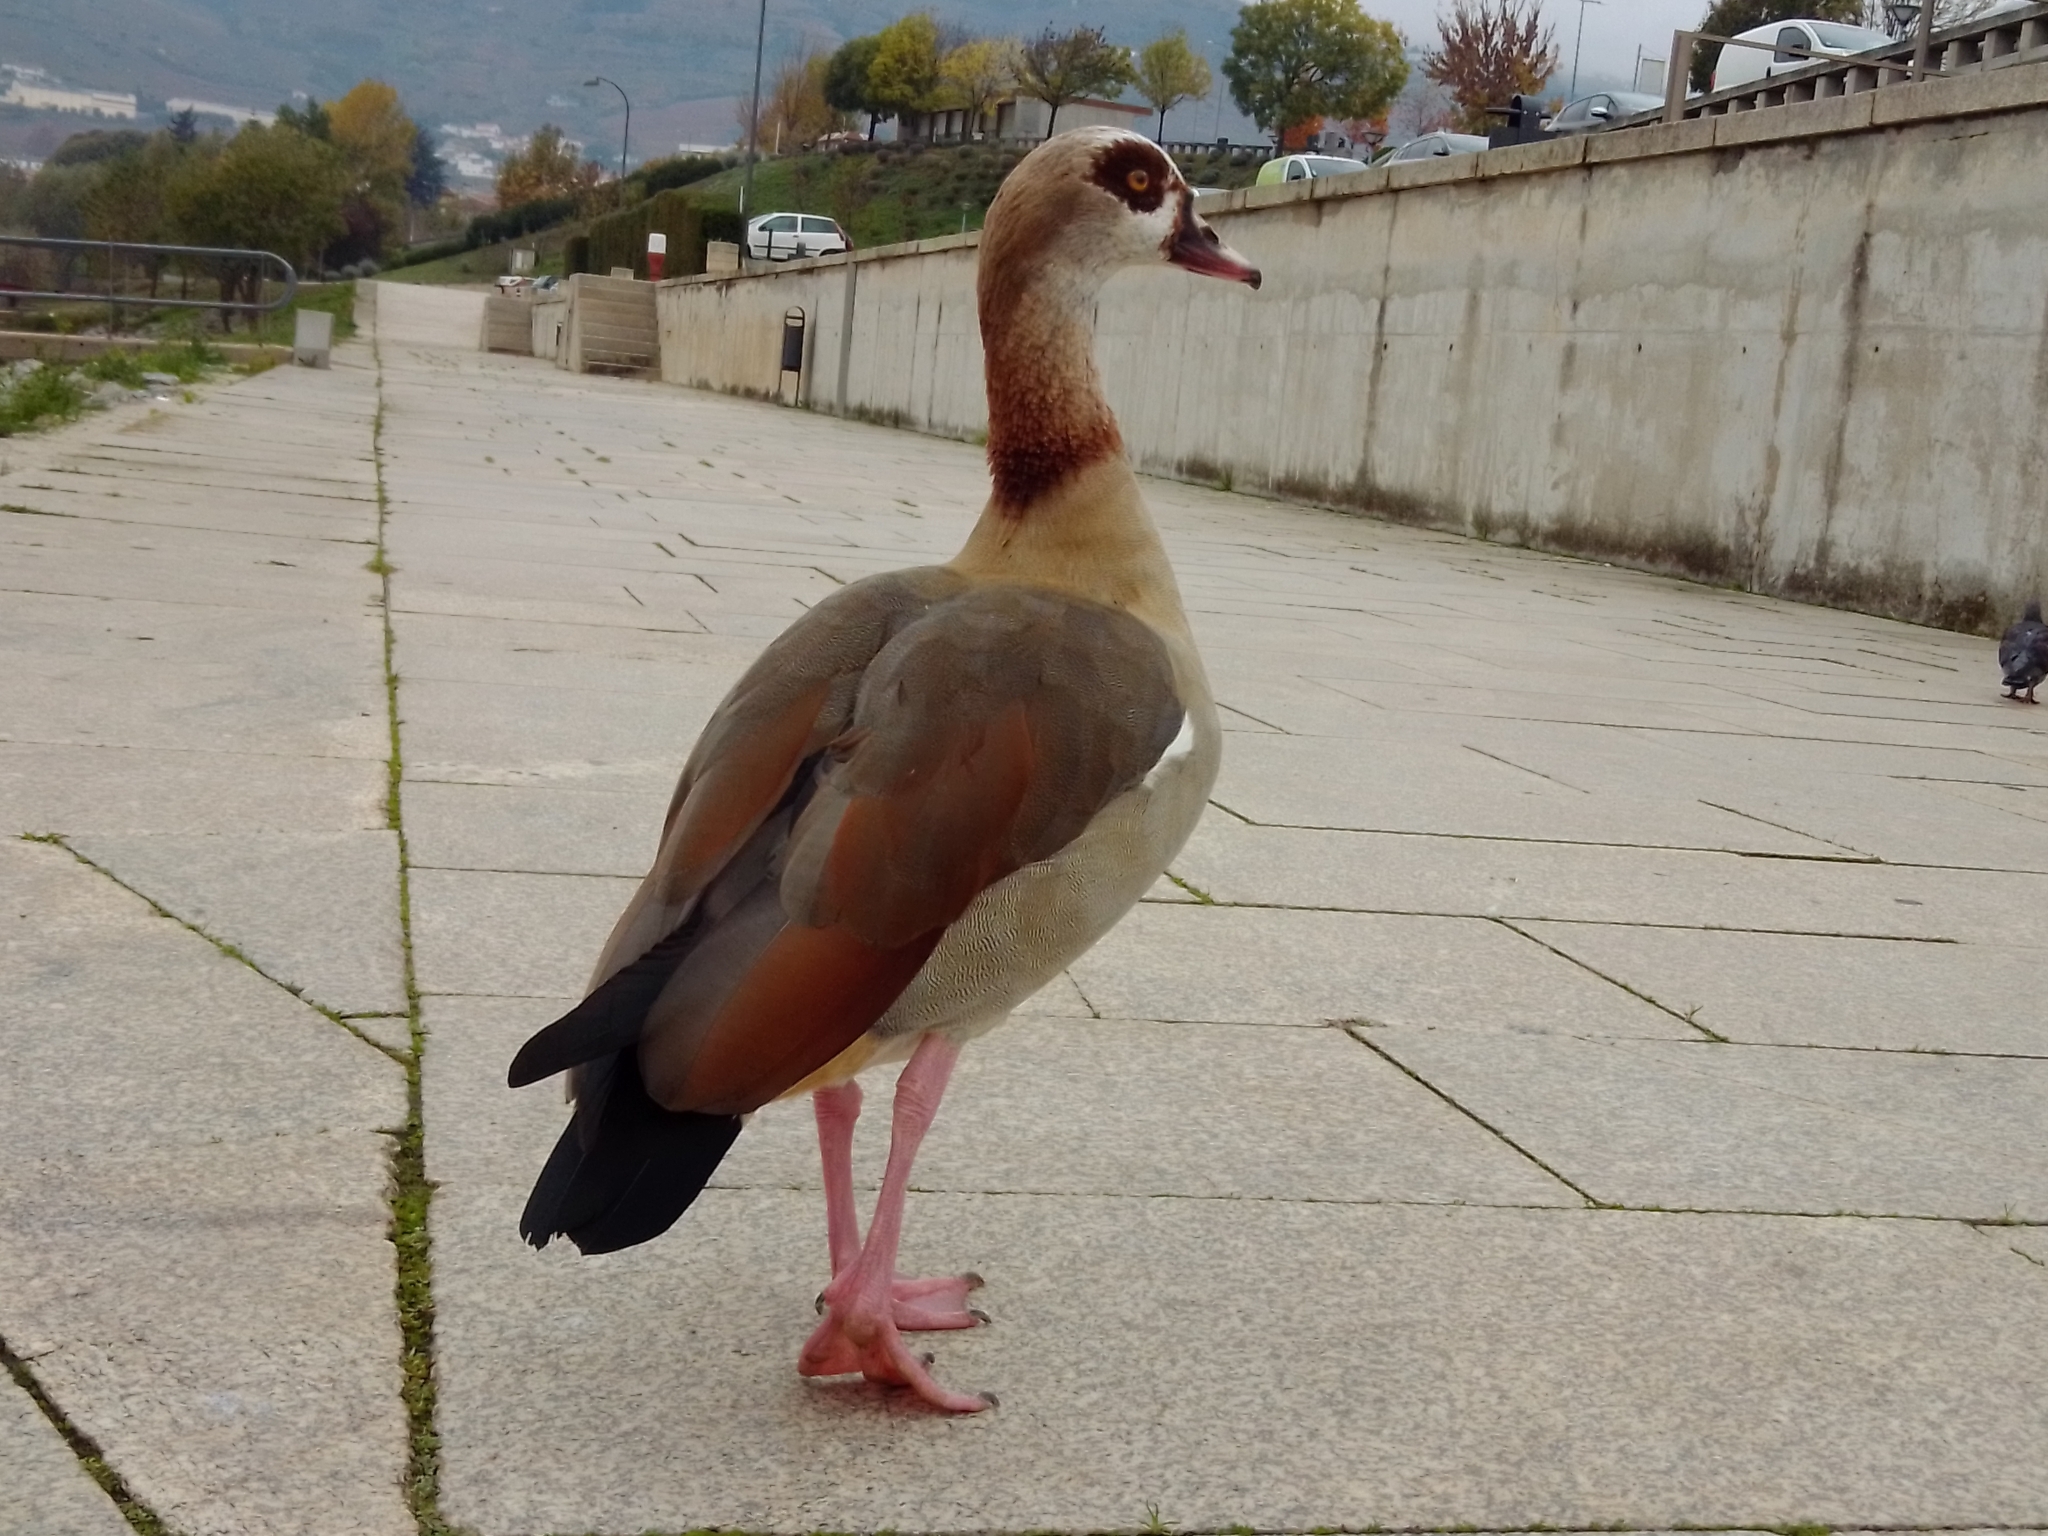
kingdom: Animalia
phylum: Chordata
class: Aves
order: Anseriformes
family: Anatidae
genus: Alopochen
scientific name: Alopochen aegyptiaca
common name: Egyptian goose
